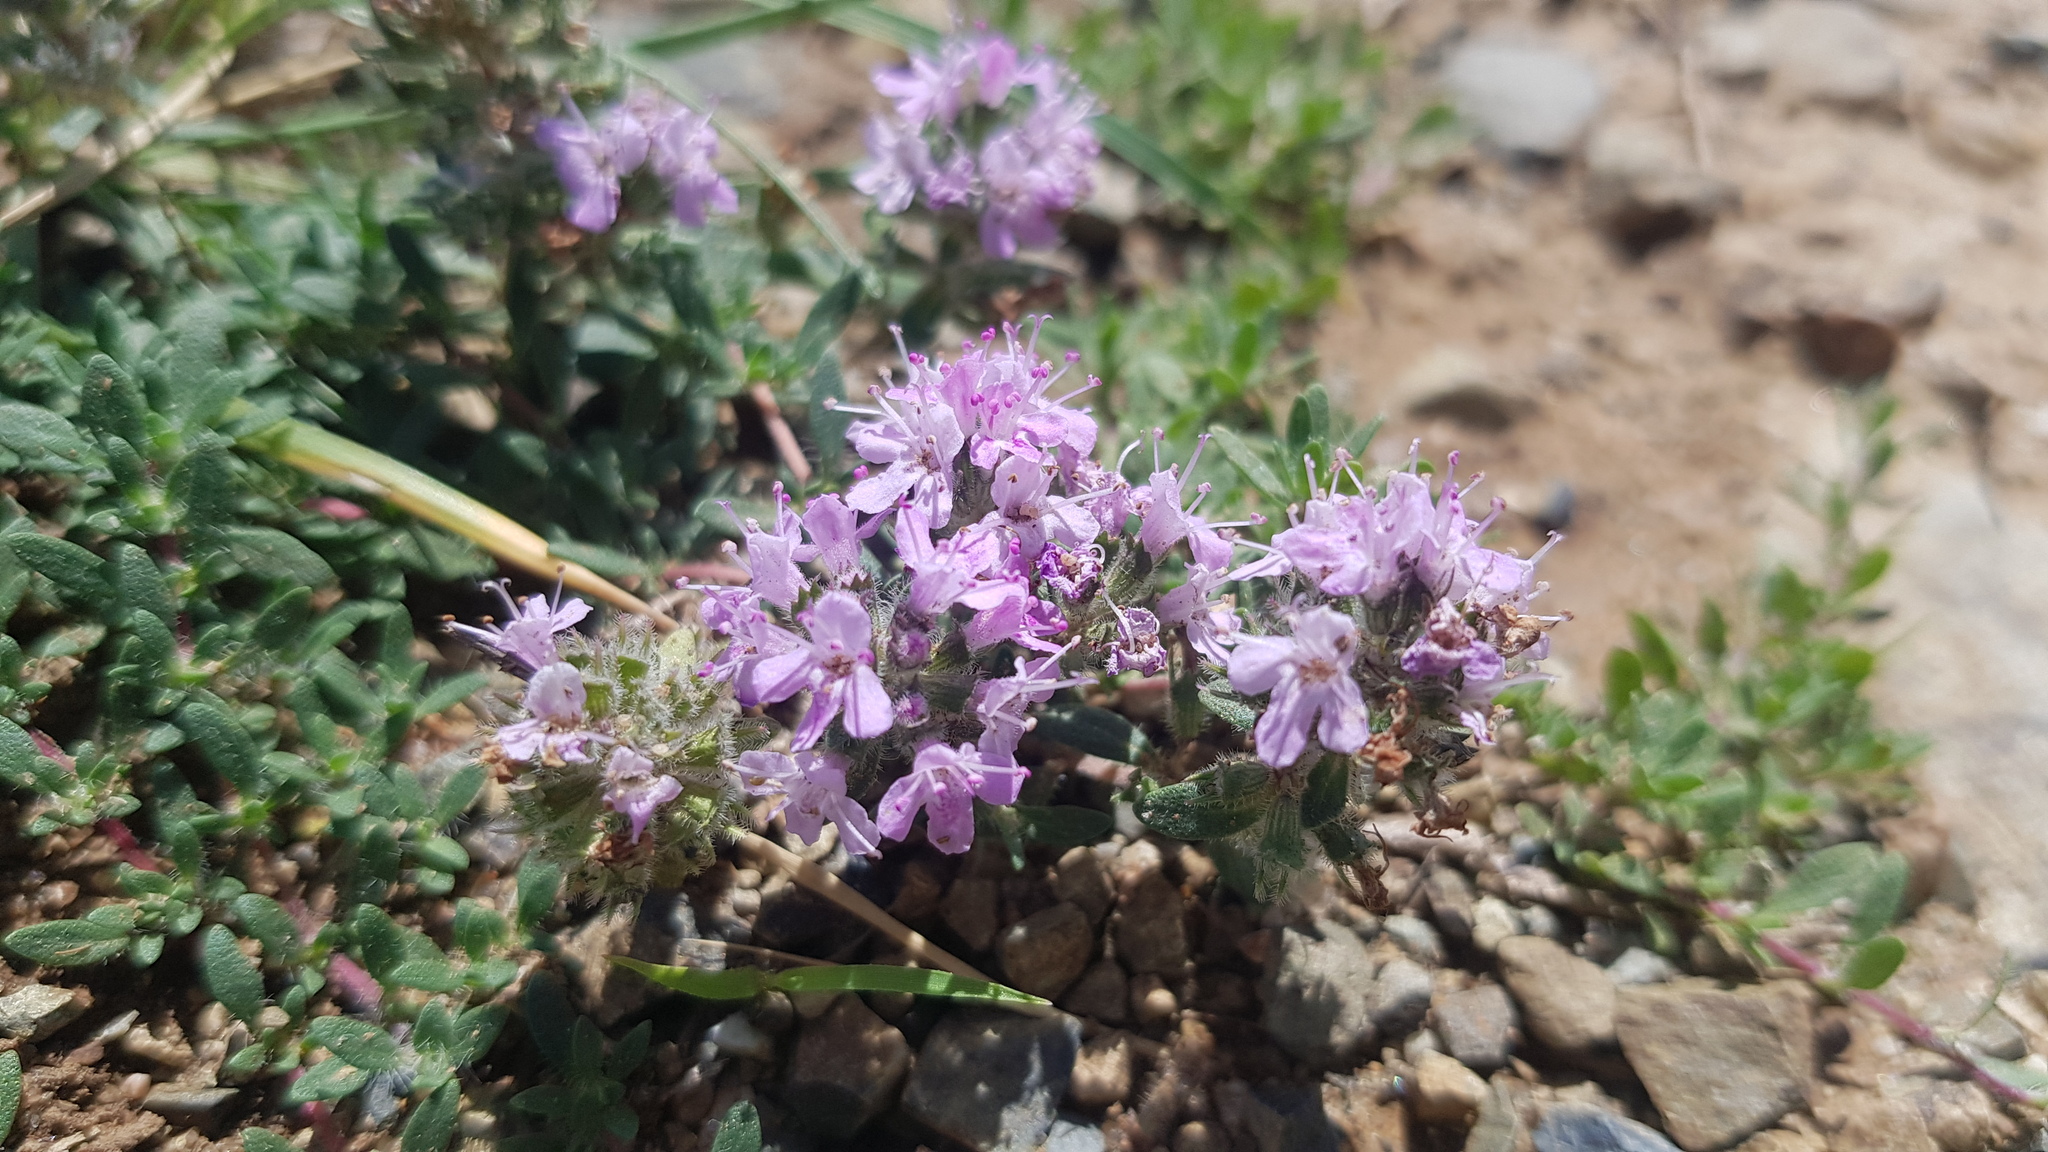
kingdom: Plantae
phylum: Tracheophyta
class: Magnoliopsida
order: Lamiales
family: Lamiaceae
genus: Thymus
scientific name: Thymus gobicus
